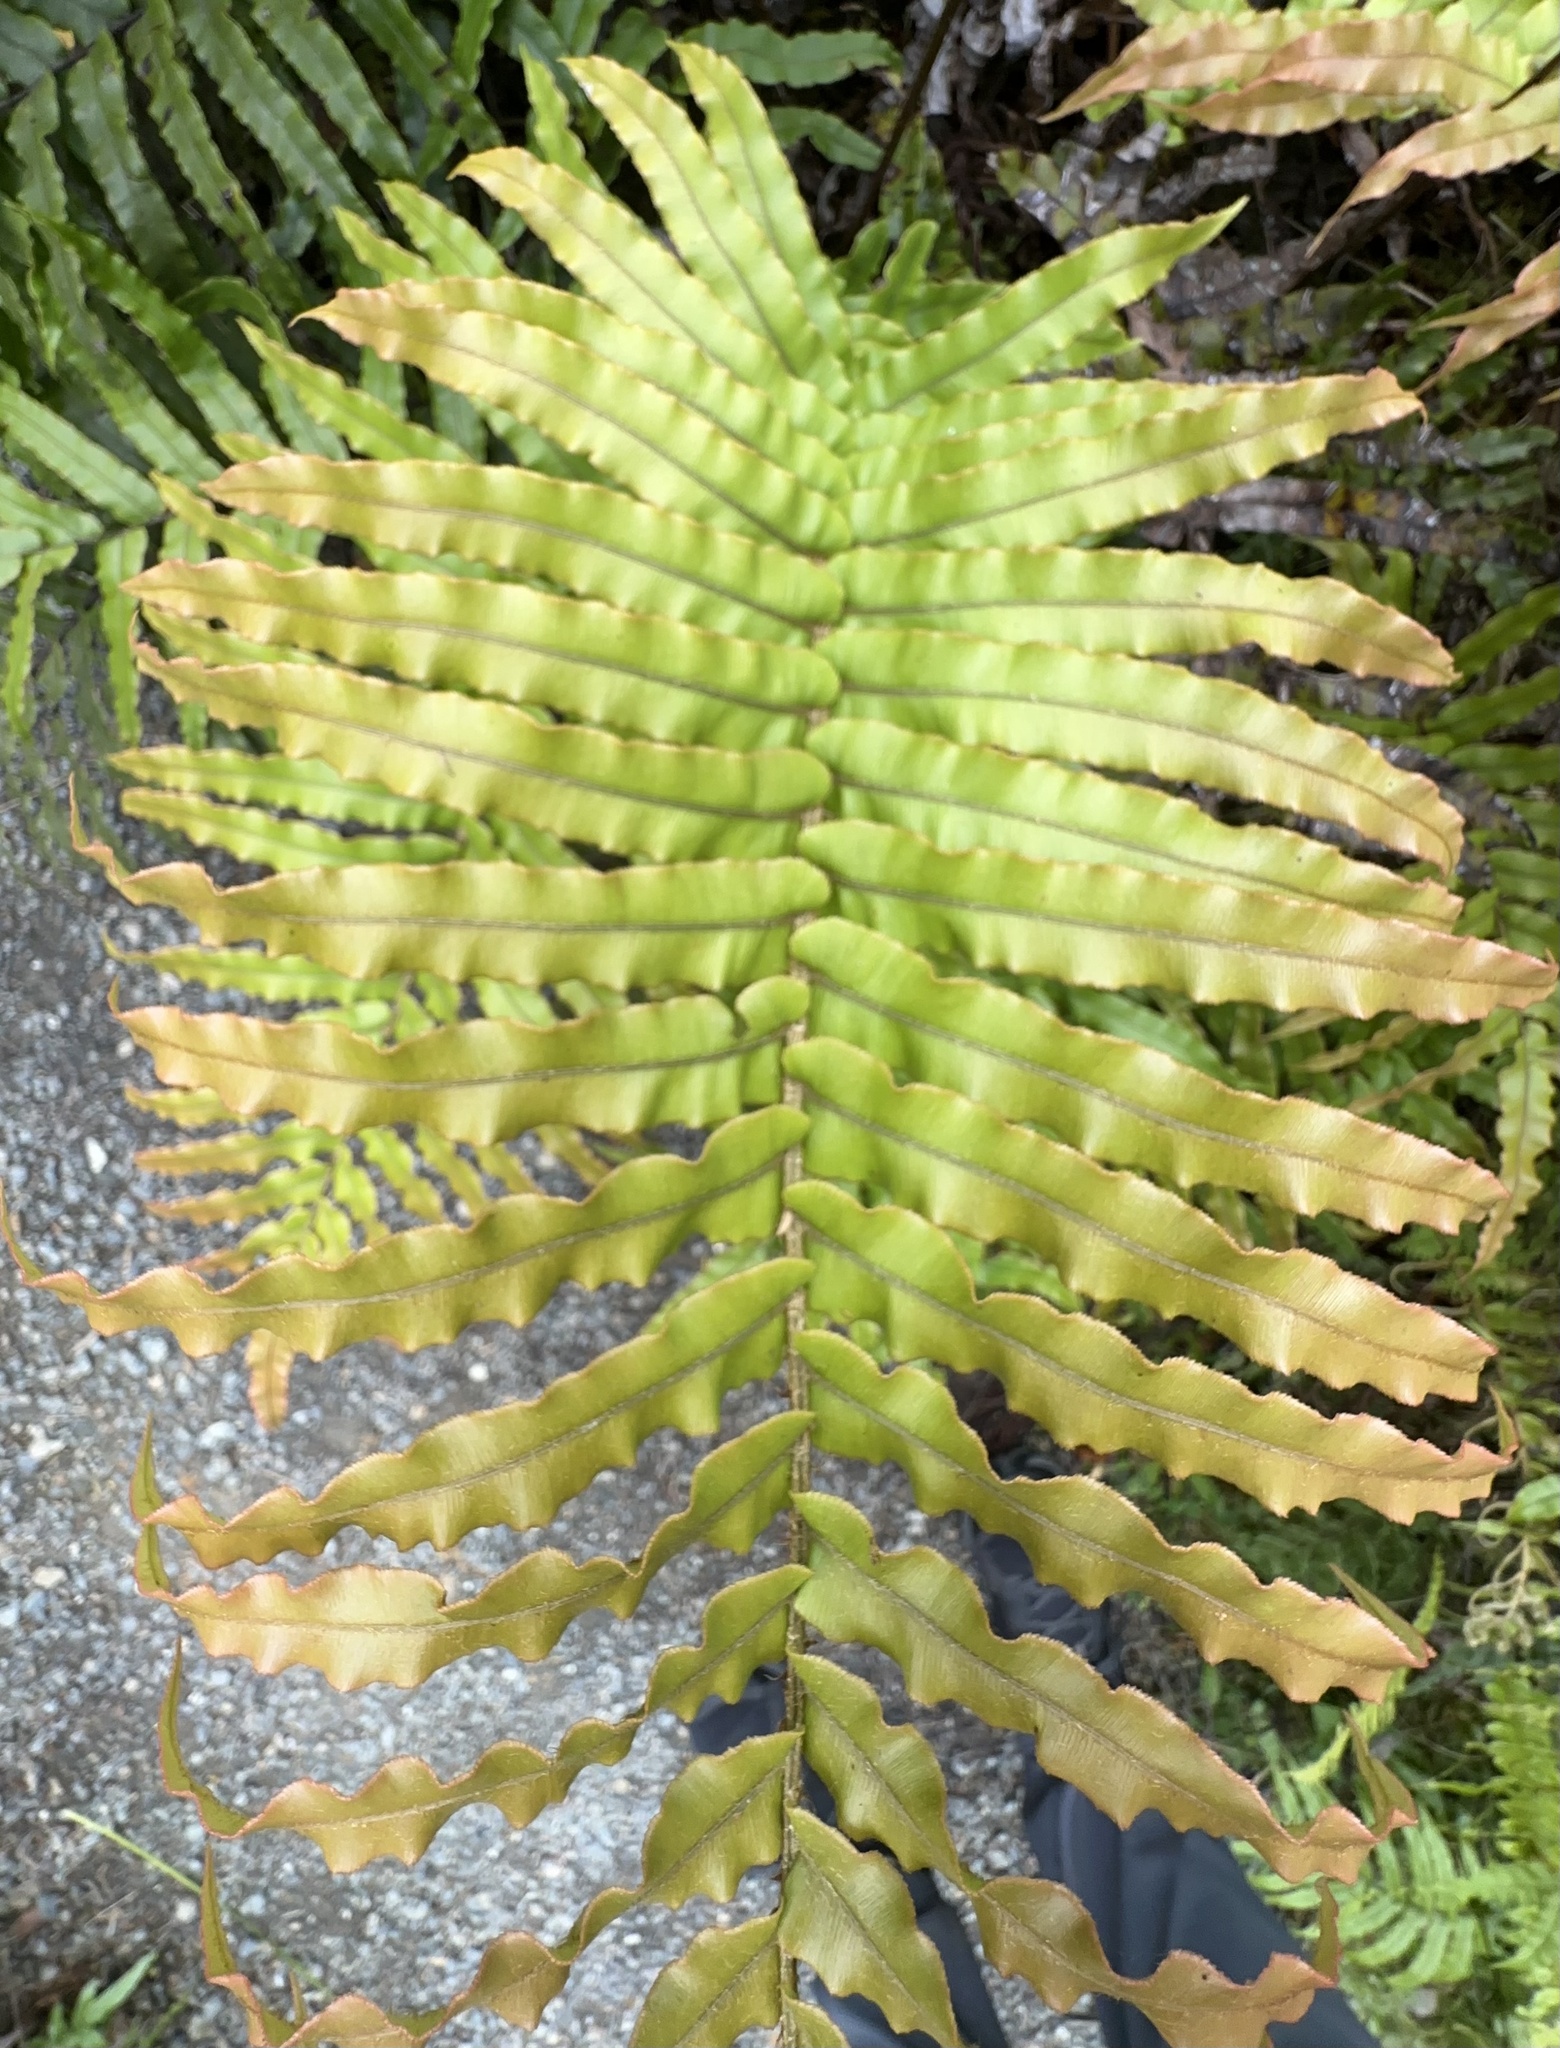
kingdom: Plantae
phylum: Tracheophyta
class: Polypodiopsida
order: Polypodiales
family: Blechnaceae
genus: Parablechnum
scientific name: Parablechnum novae-zelandiae
